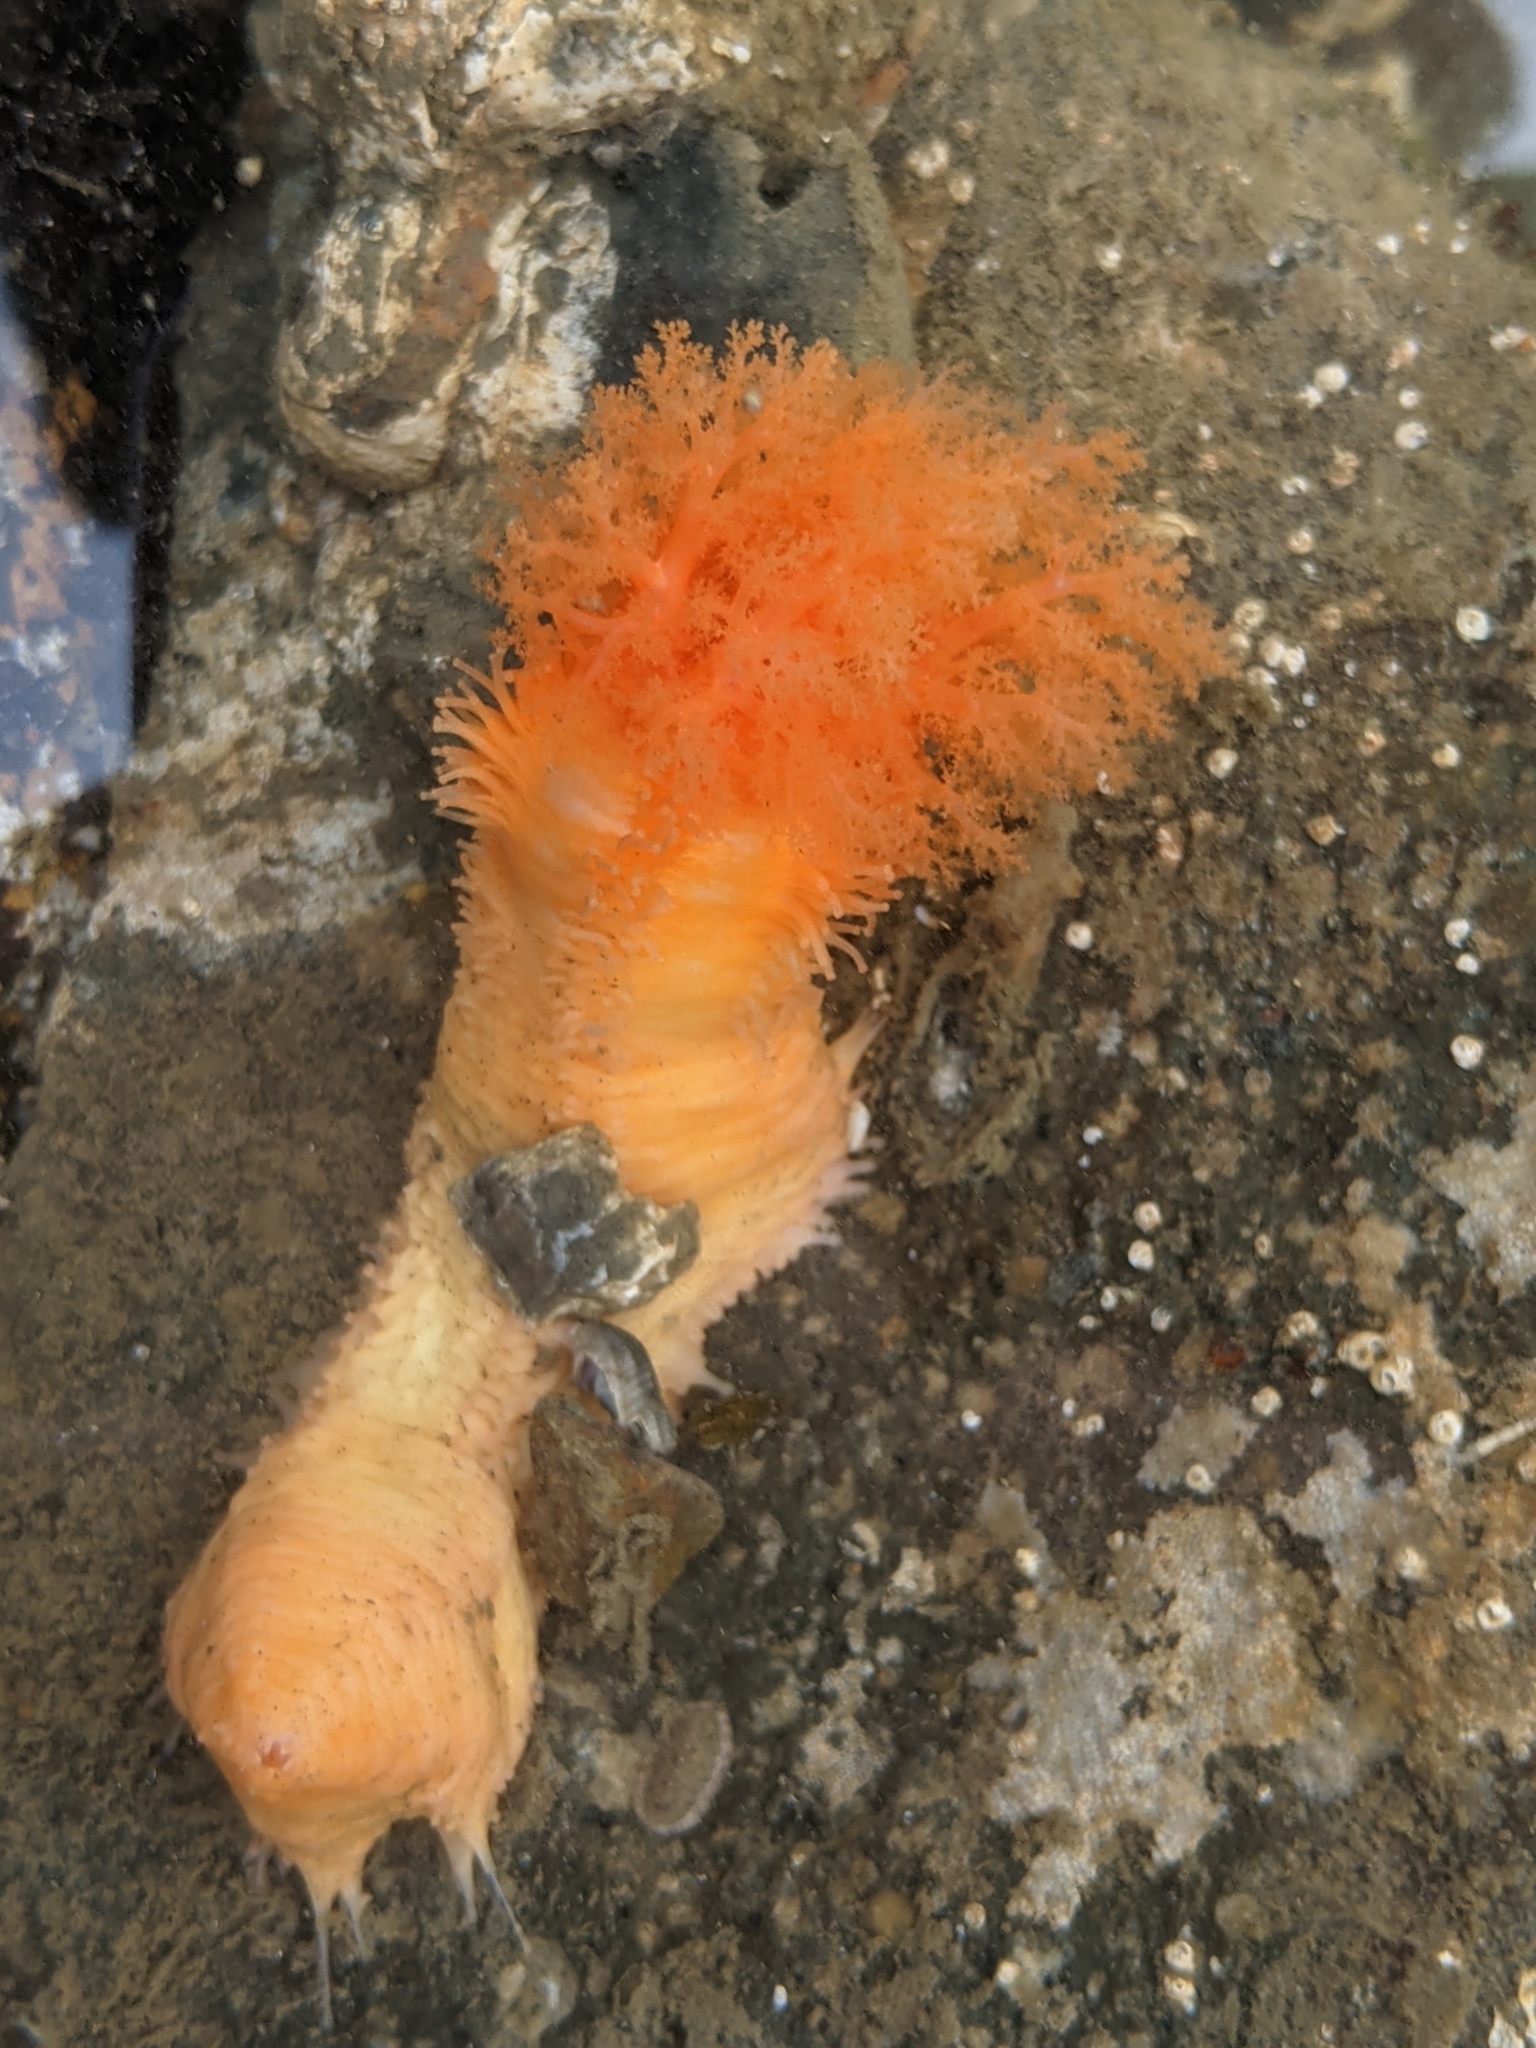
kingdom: Animalia
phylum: Echinodermata
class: Holothuroidea
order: Dendrochirotida
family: Cucumariidae
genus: Cucumaria
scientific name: Cucumaria miniata
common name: Orange sea cucumber
